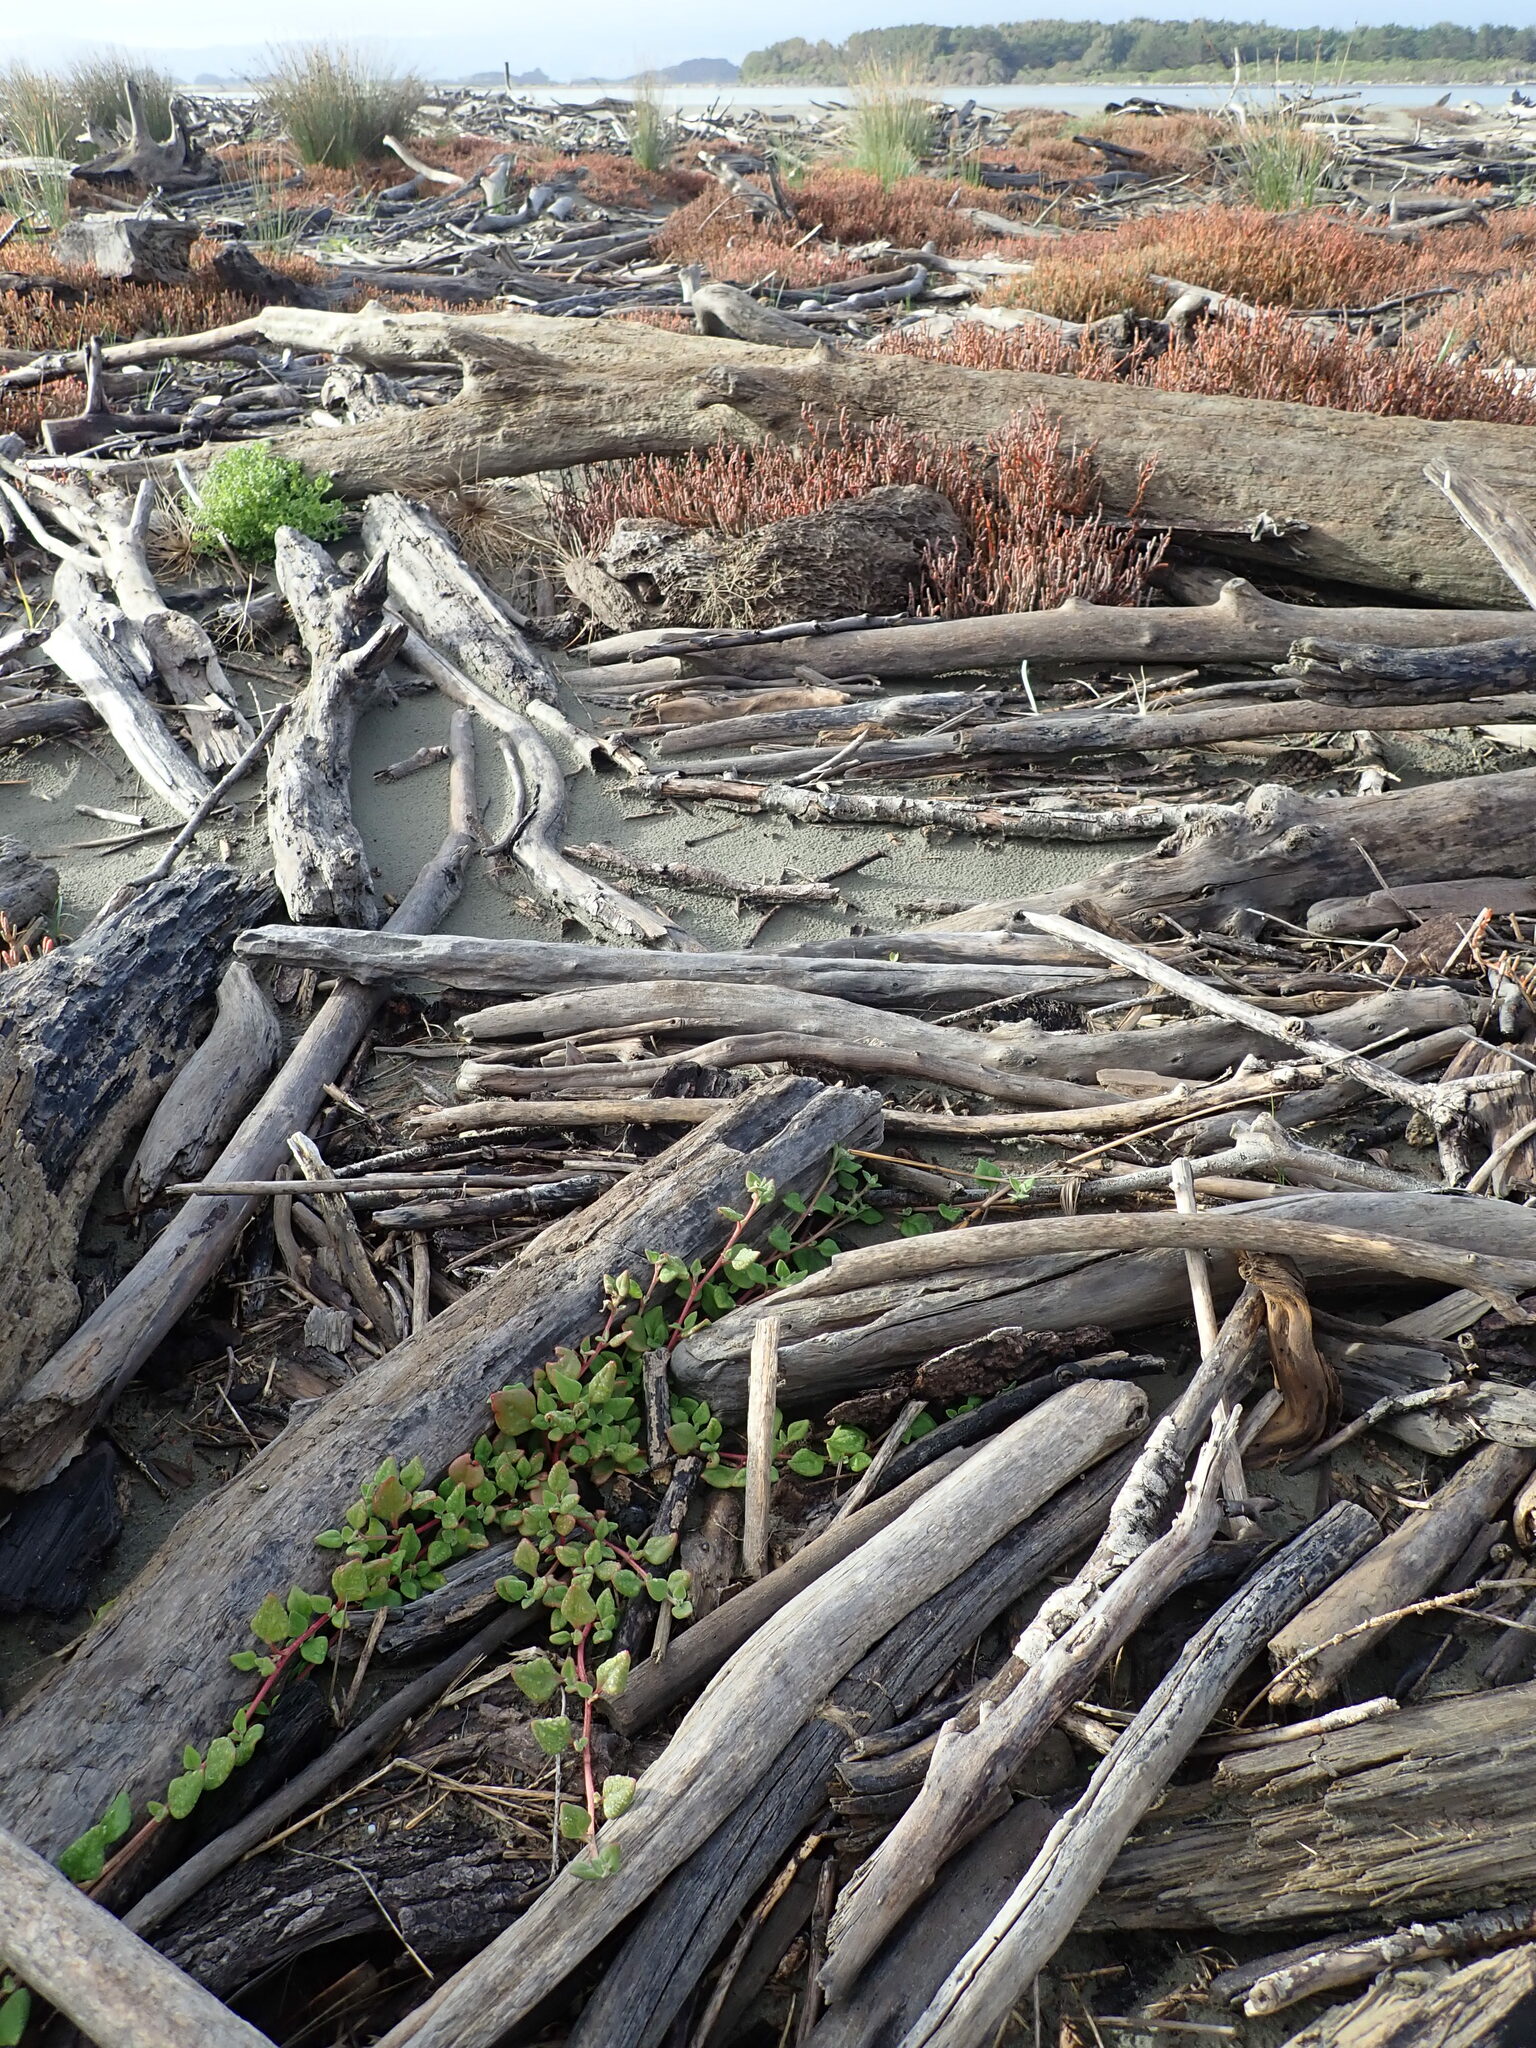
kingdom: Plantae
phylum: Tracheophyta
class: Magnoliopsida
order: Caryophyllales
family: Aizoaceae
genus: Tetragonia
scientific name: Tetragonia implexicoma
